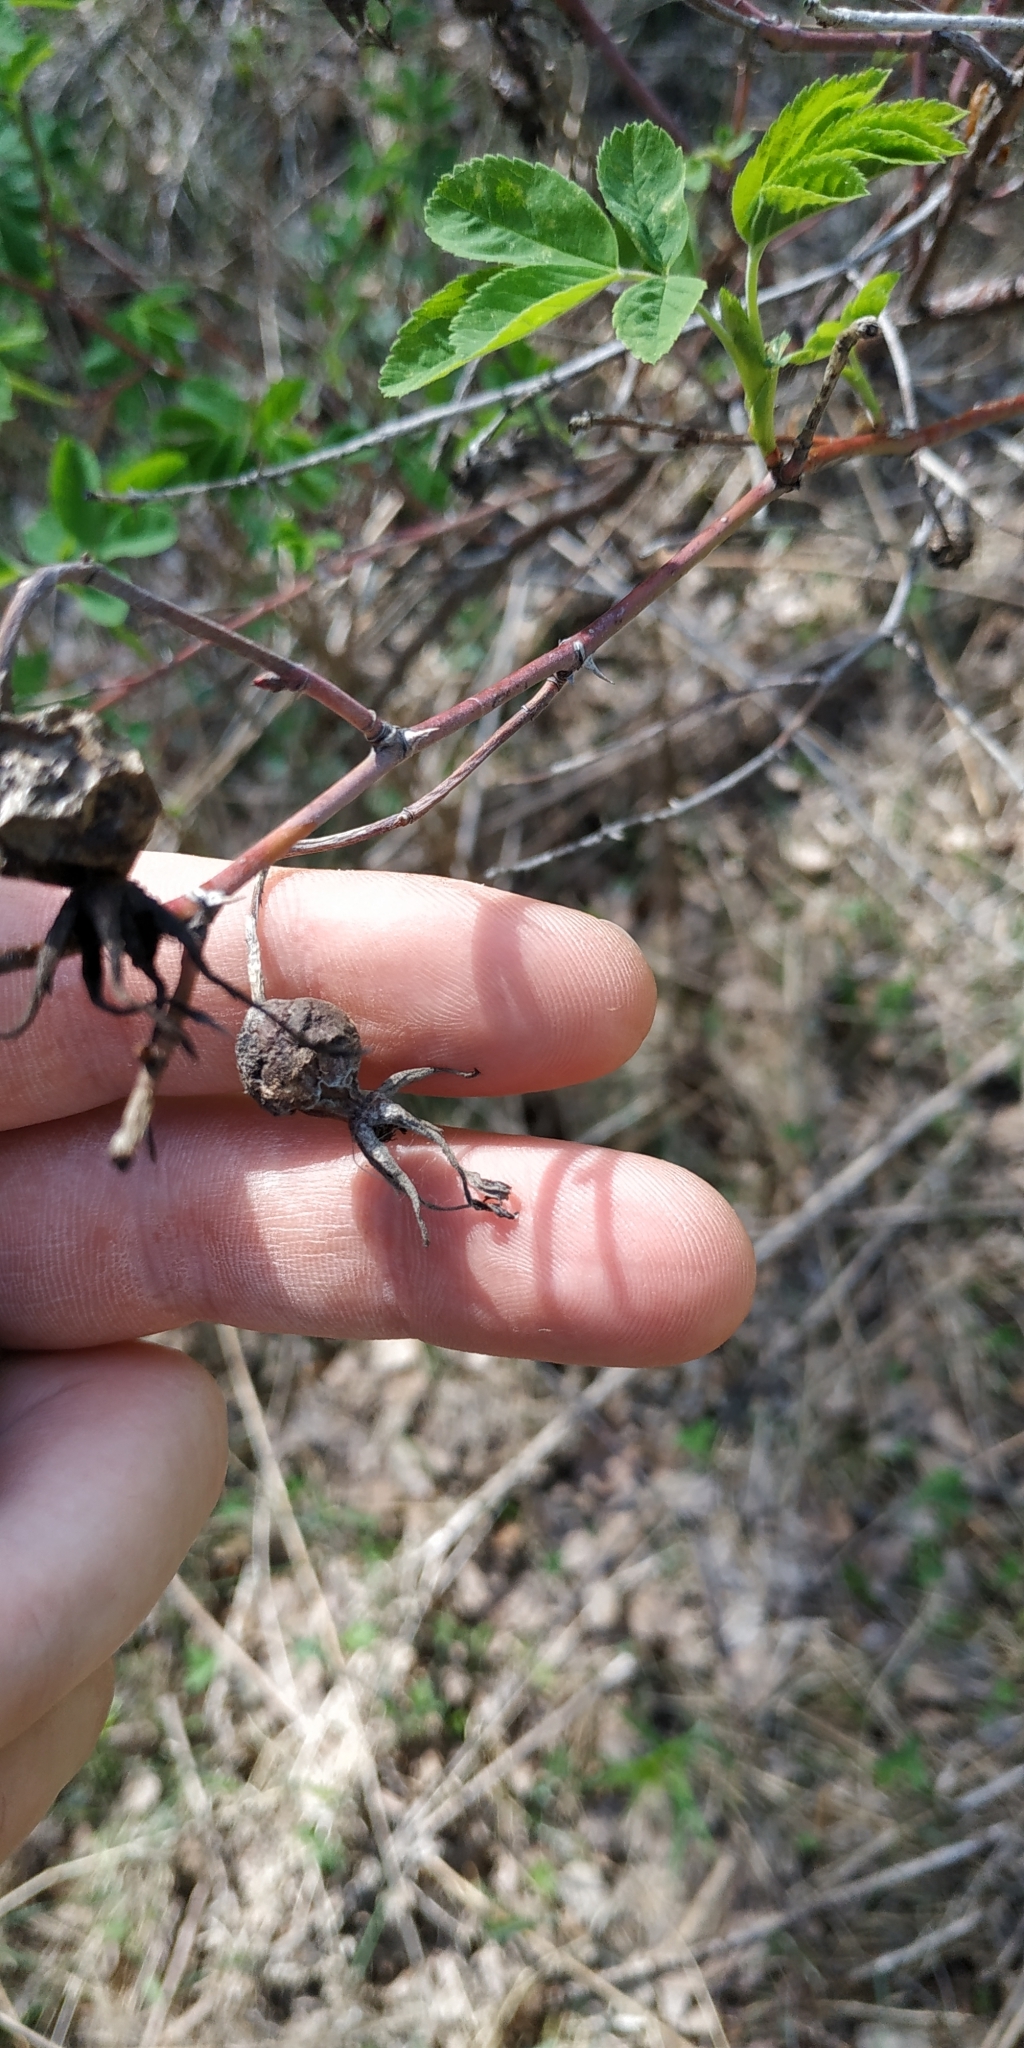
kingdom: Plantae
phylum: Tracheophyta
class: Magnoliopsida
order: Rosales
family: Rosaceae
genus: Rosa
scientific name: Rosa majalis
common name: Cinnamon rose
